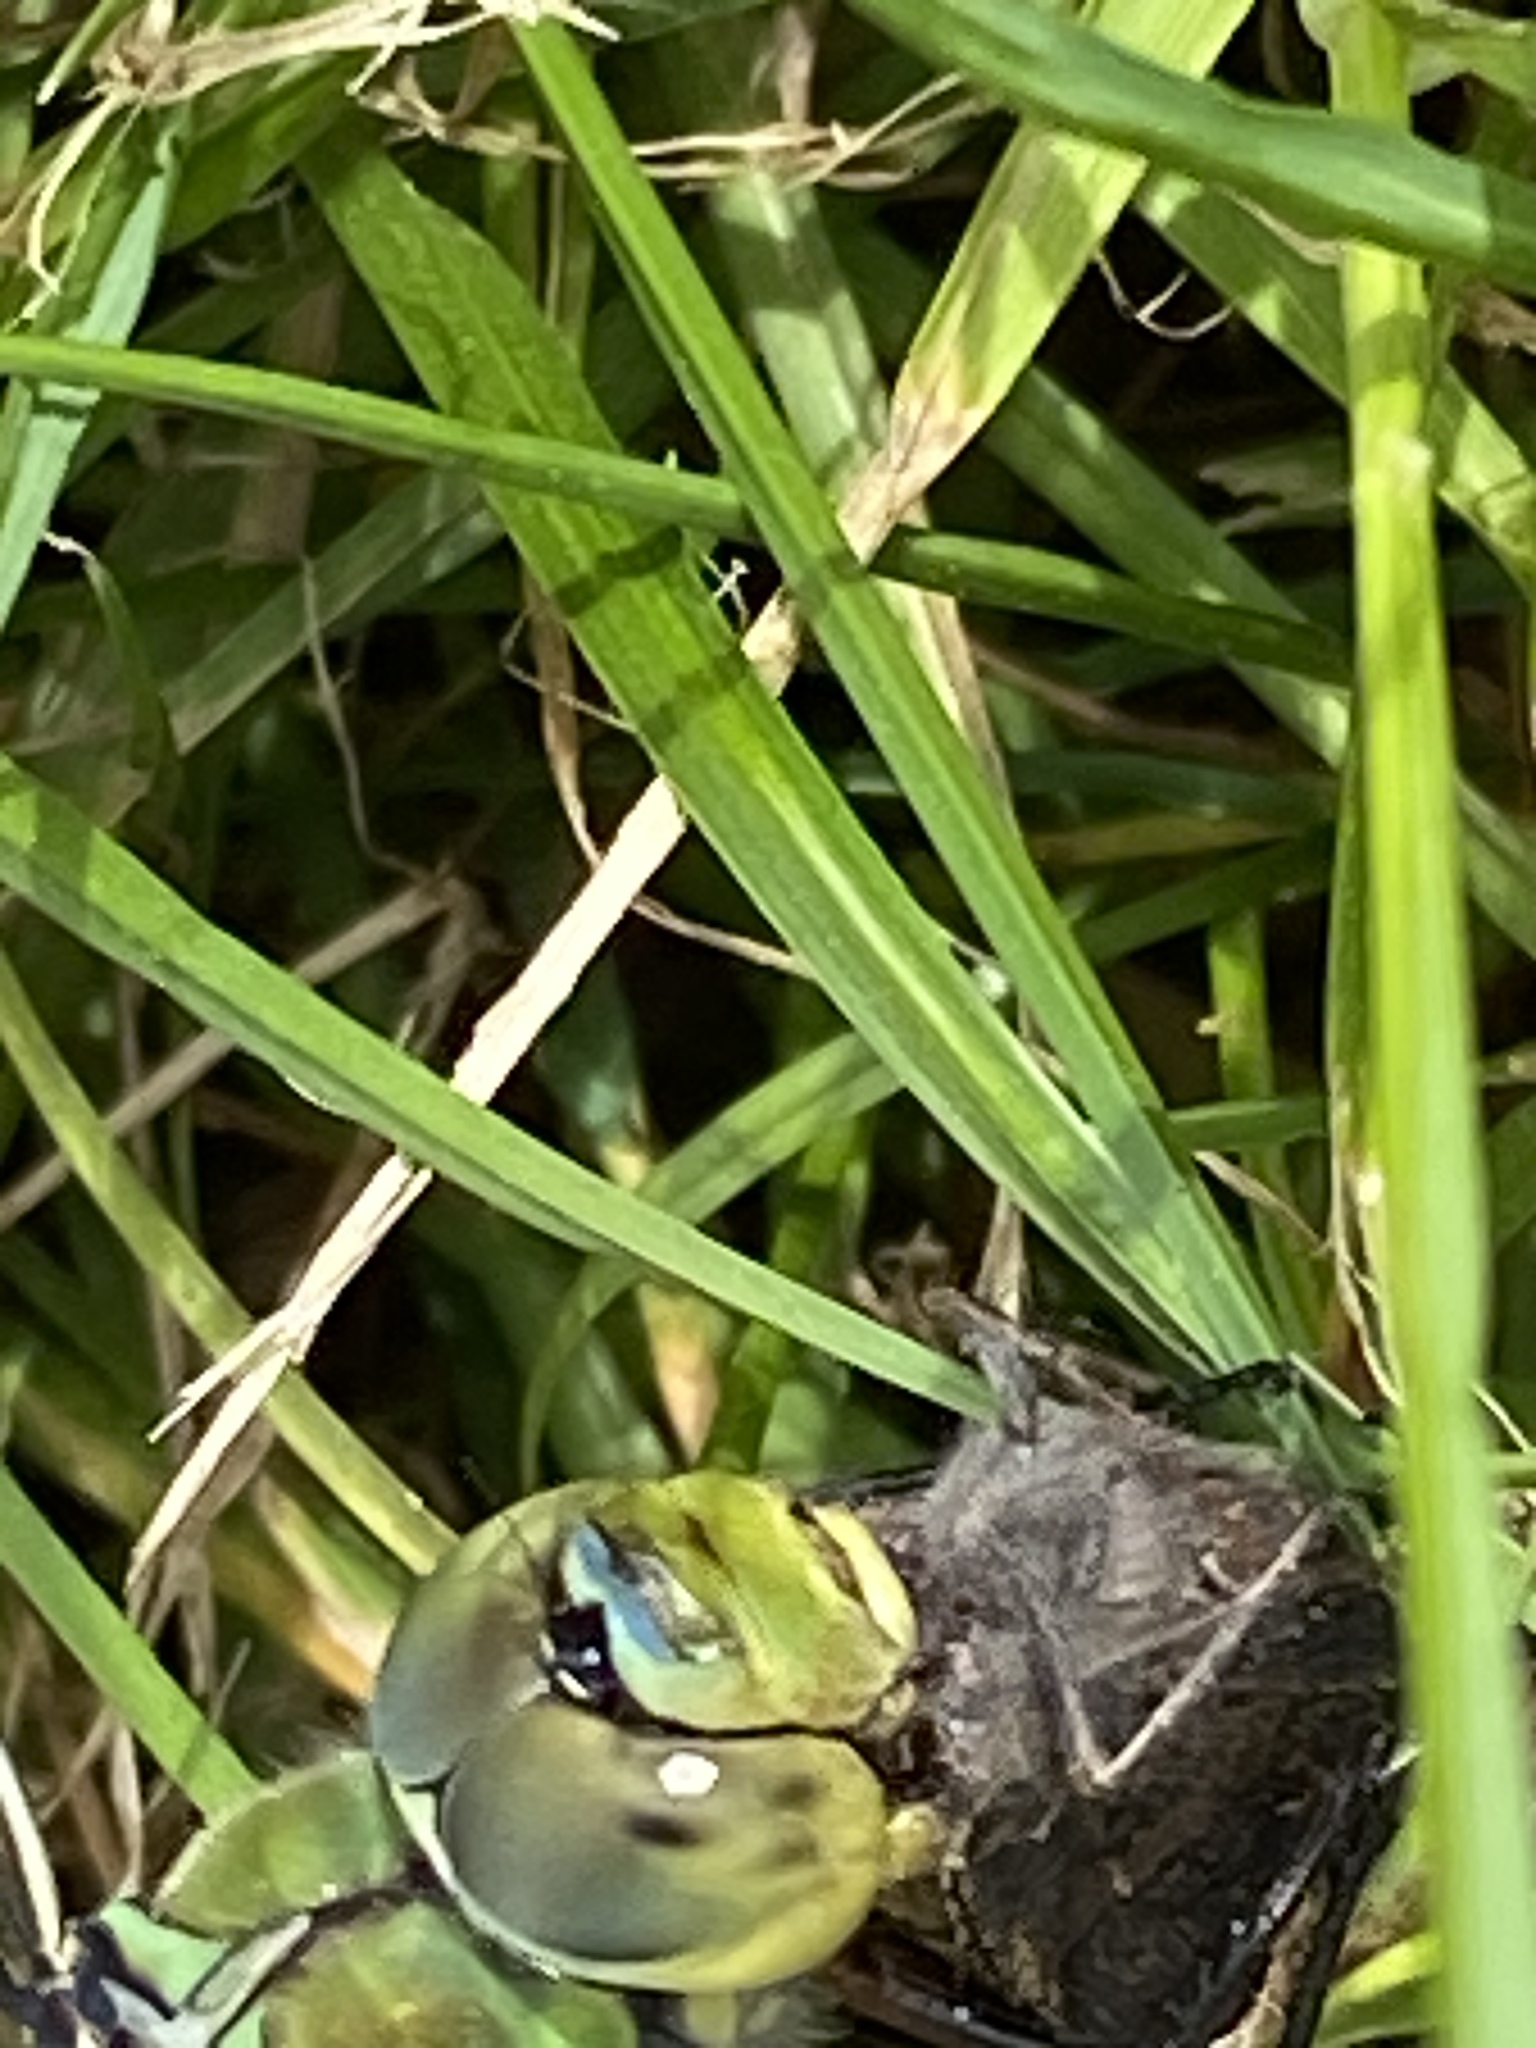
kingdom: Animalia
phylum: Arthropoda
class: Insecta
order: Odonata
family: Aeshnidae
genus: Anax
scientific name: Anax imperator
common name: Emperor dragonfly
